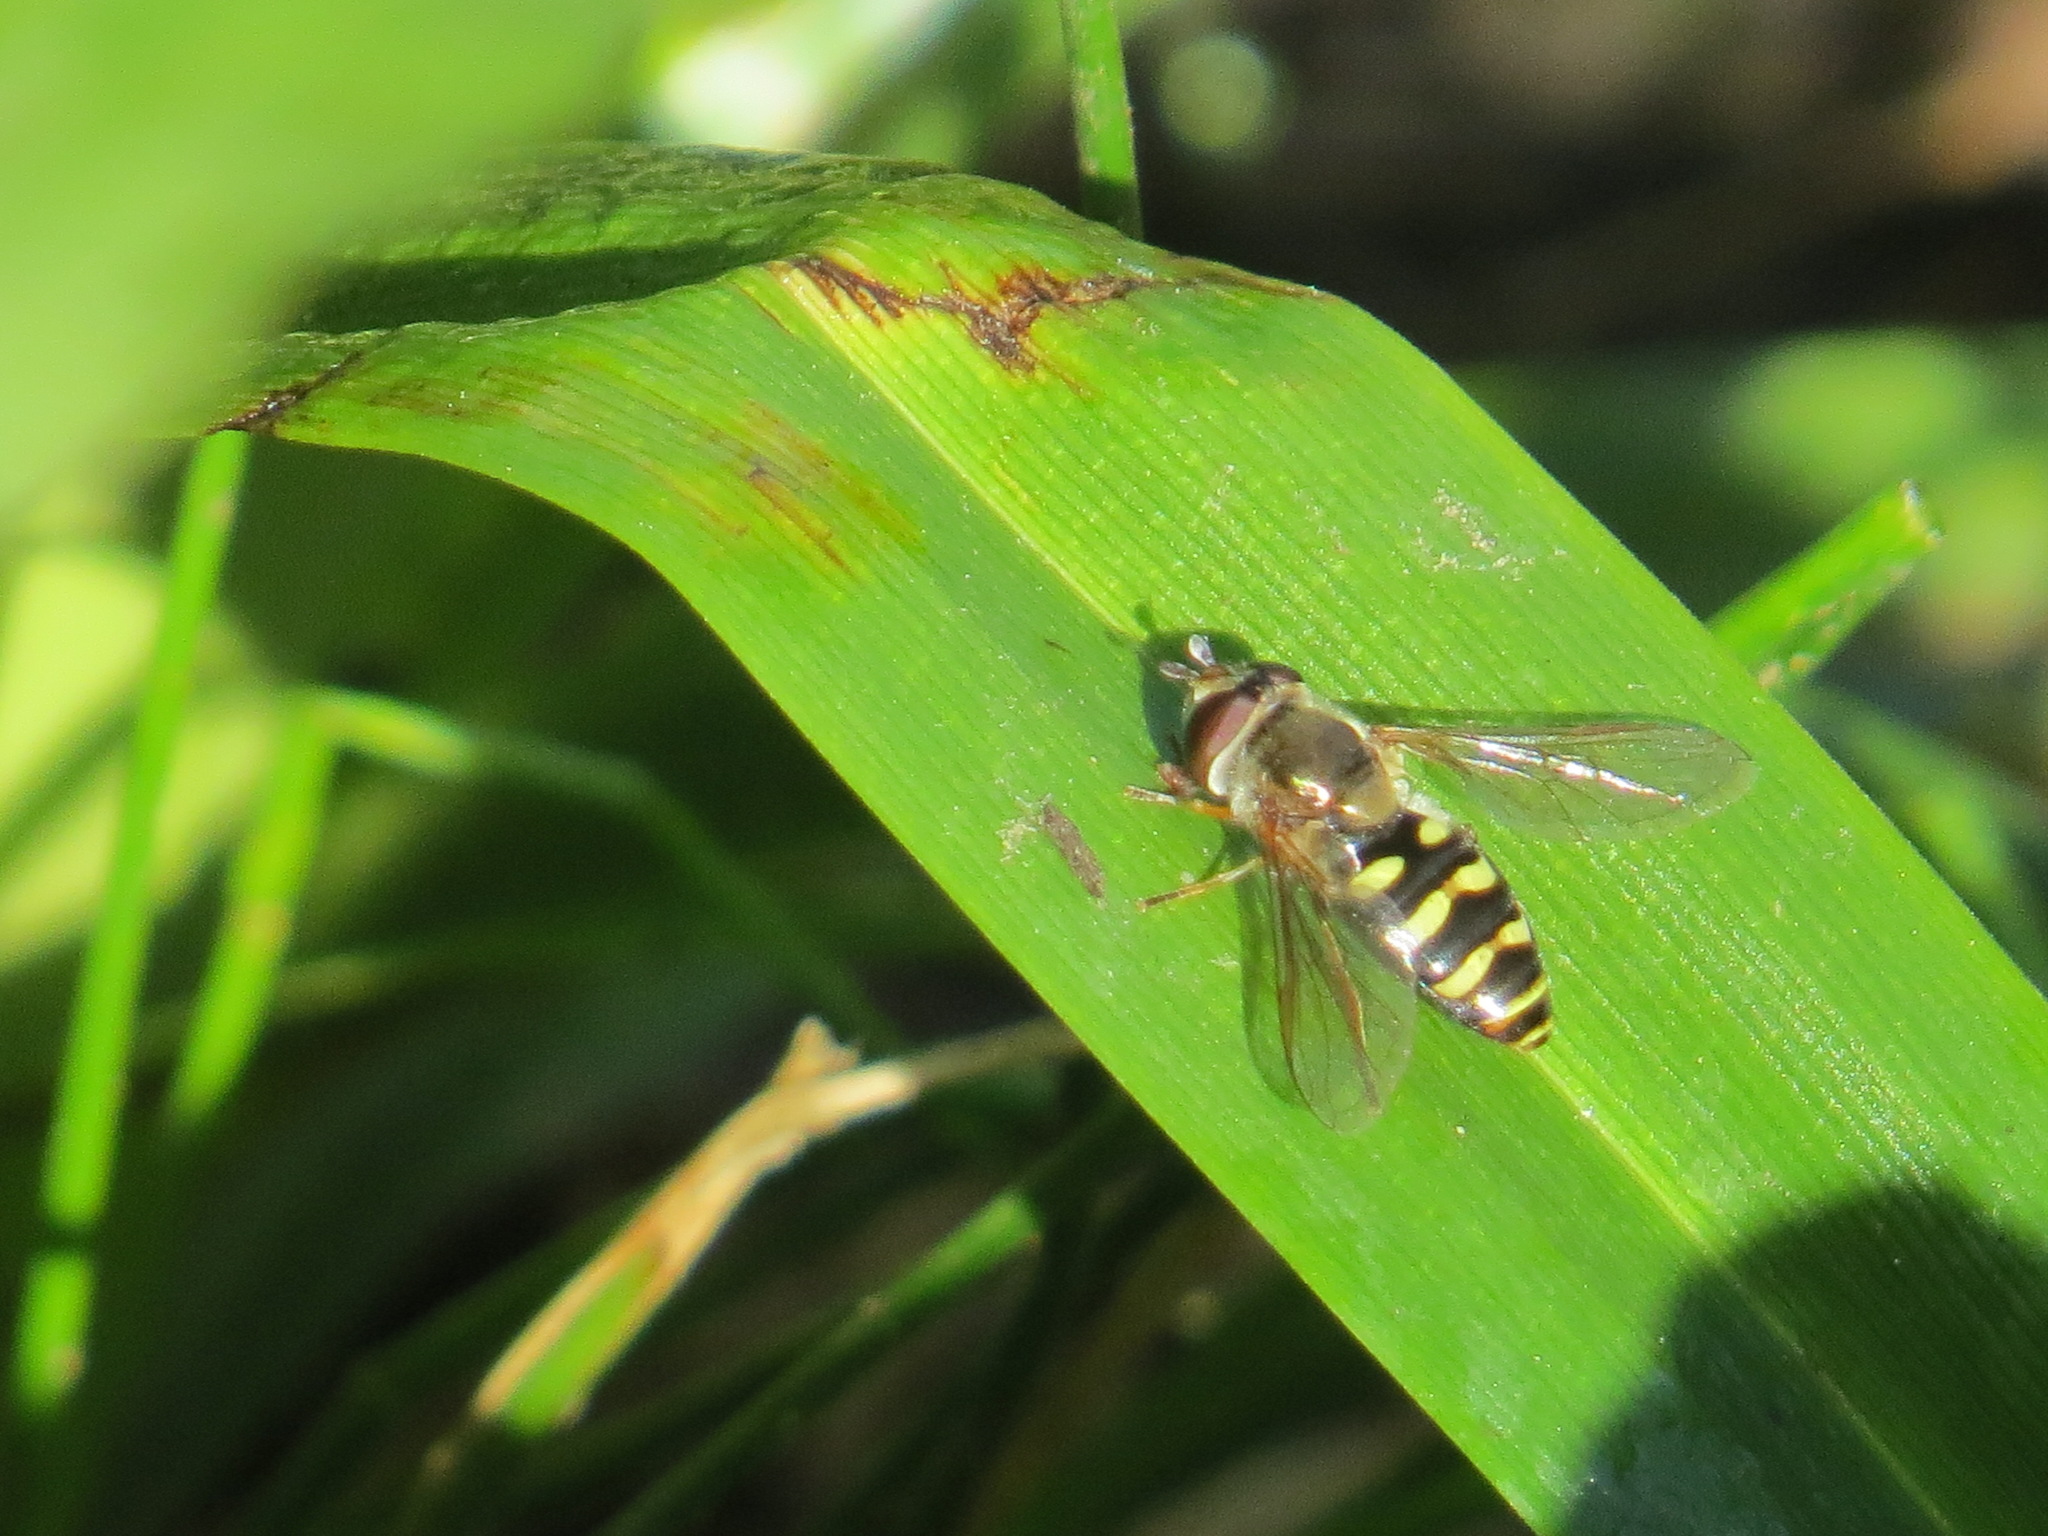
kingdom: Animalia
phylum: Arthropoda
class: Insecta
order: Diptera
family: Syrphidae
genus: Eupeodes
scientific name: Eupeodes fumipennis
